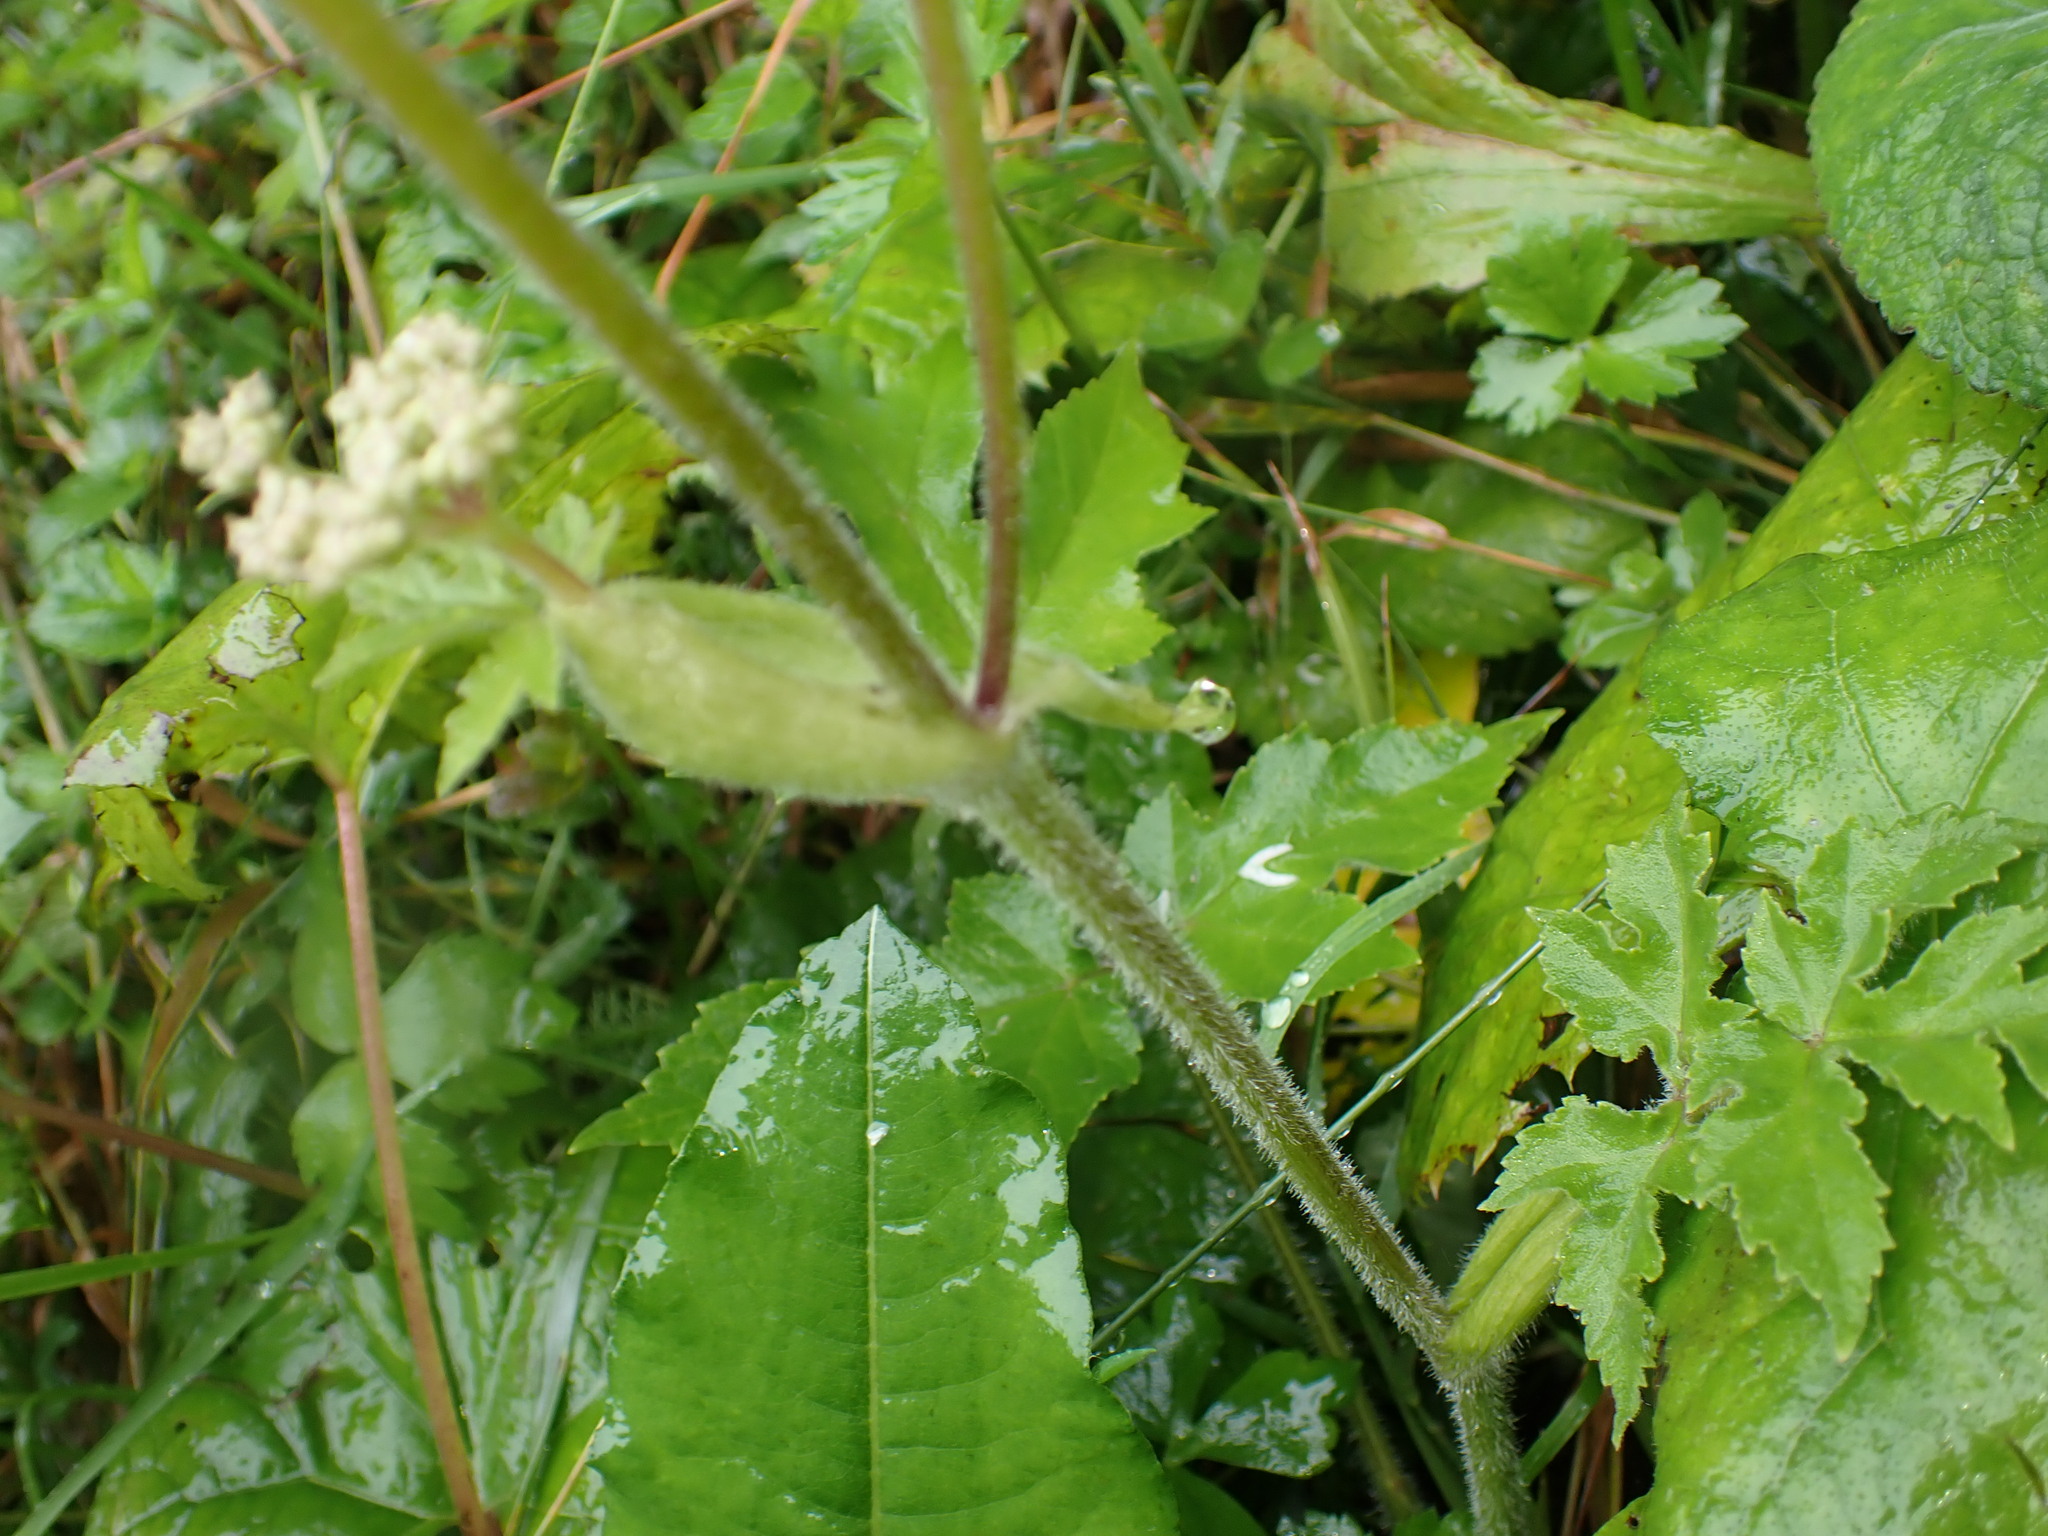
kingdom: Plantae
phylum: Tracheophyta
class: Magnoliopsida
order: Apiales
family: Apiaceae
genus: Heracleum
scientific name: Heracleum sphondylium
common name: Hogweed
